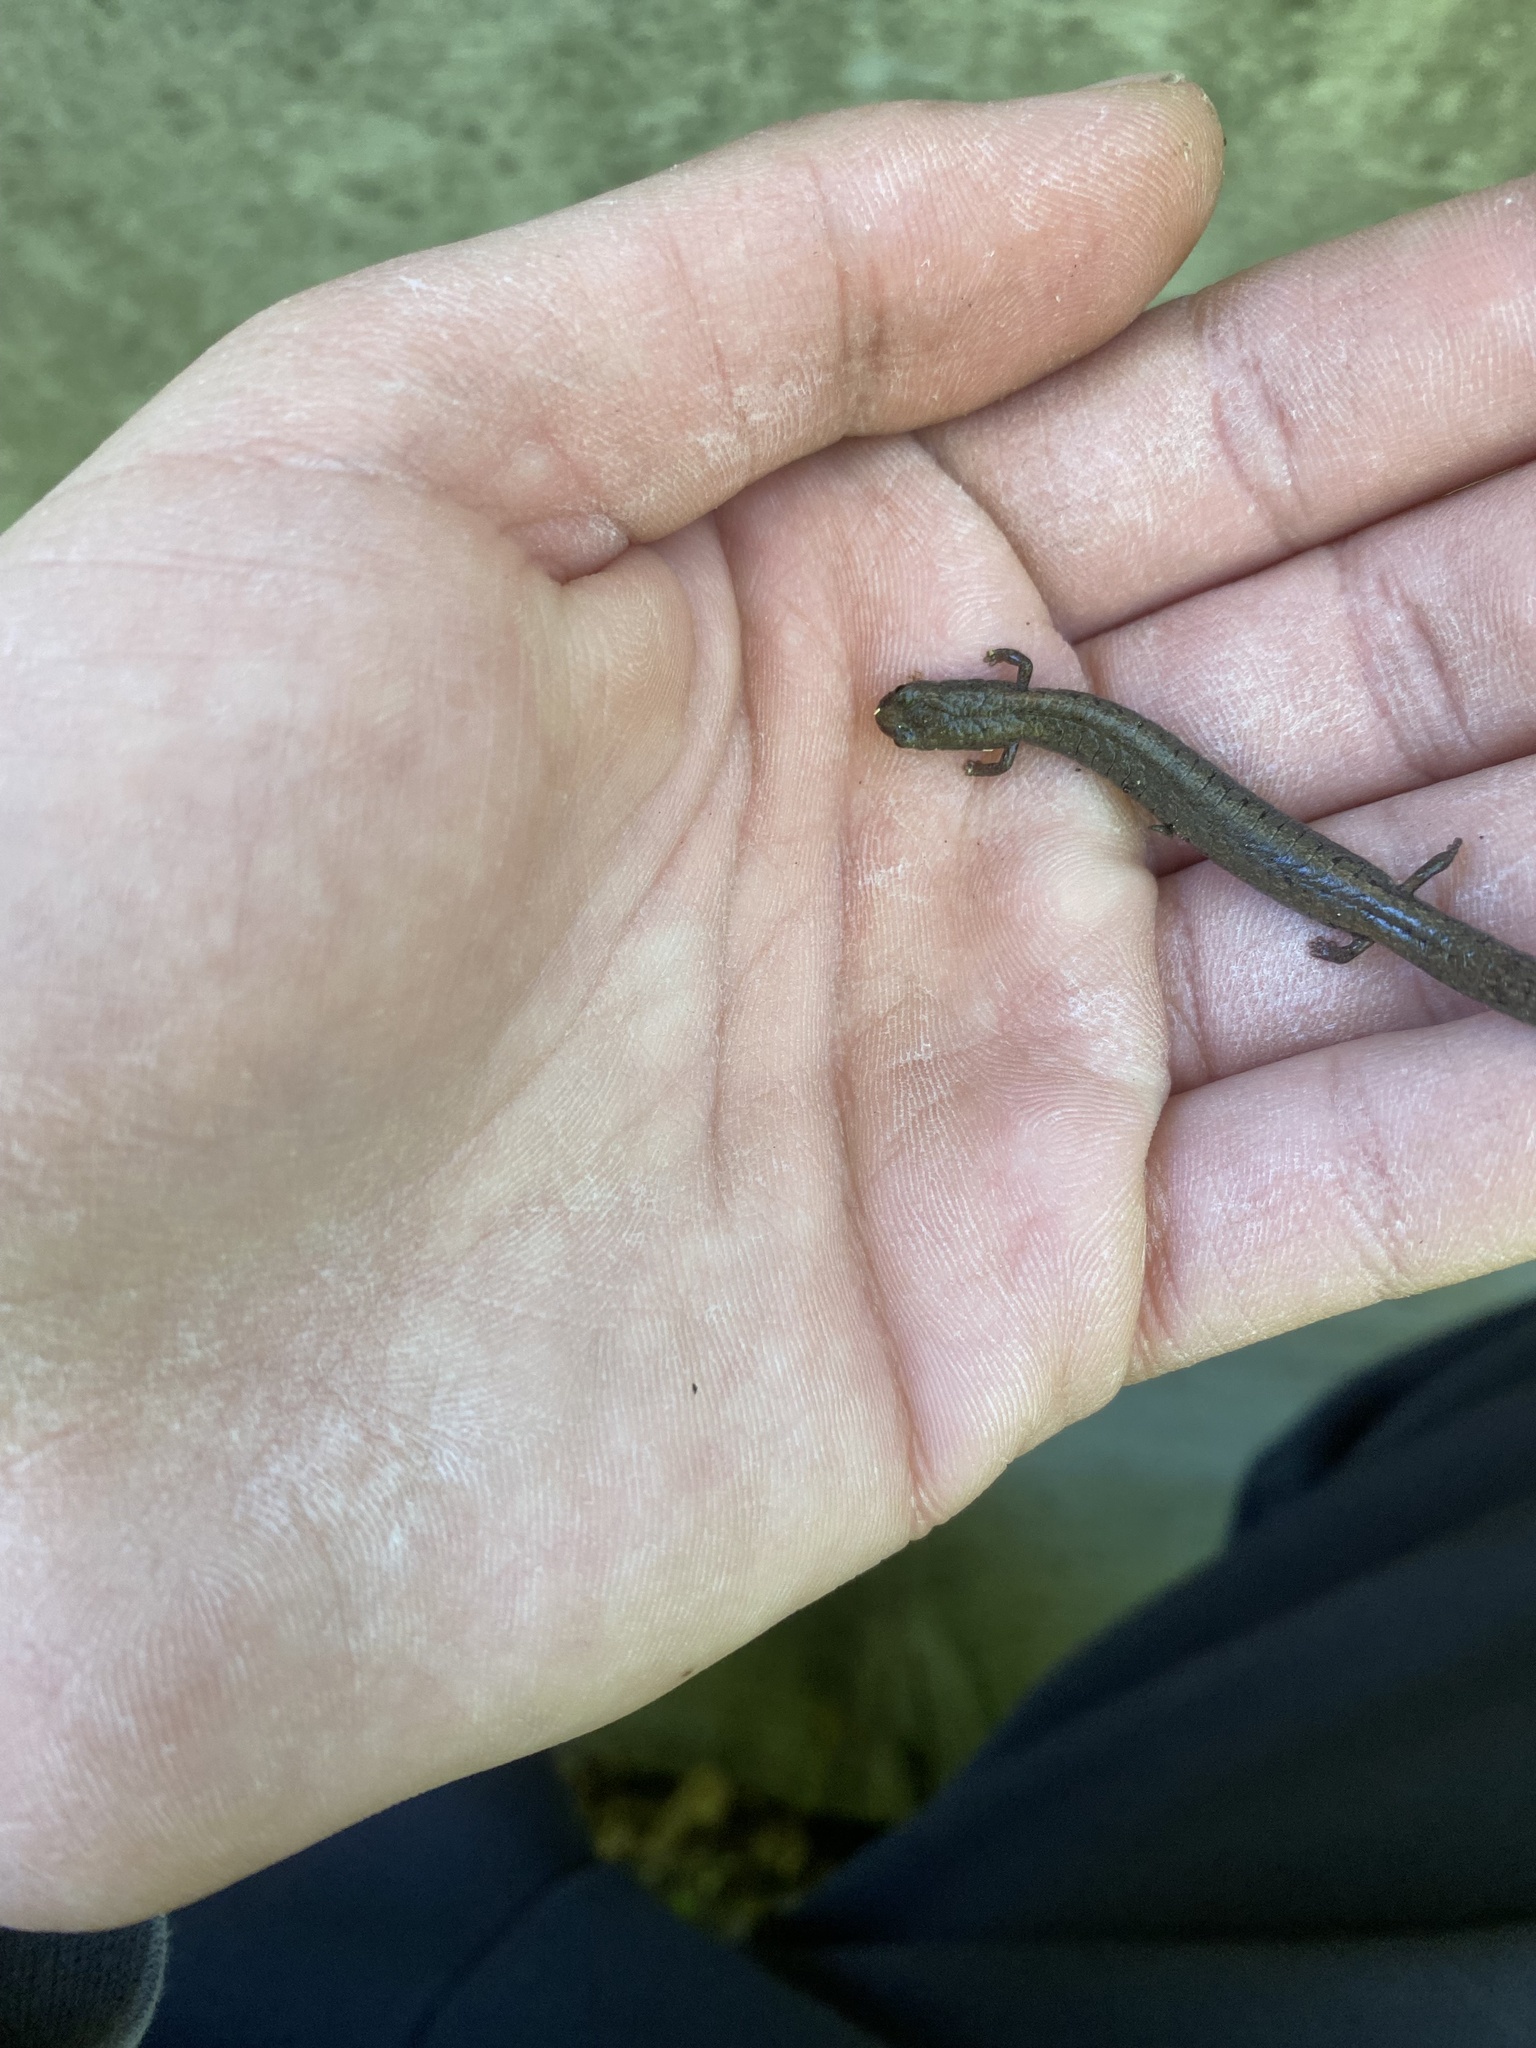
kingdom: Animalia
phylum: Chordata
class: Amphibia
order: Caudata
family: Plethodontidae
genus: Batrachoseps
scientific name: Batrachoseps attenuatus
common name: California slender salamander
